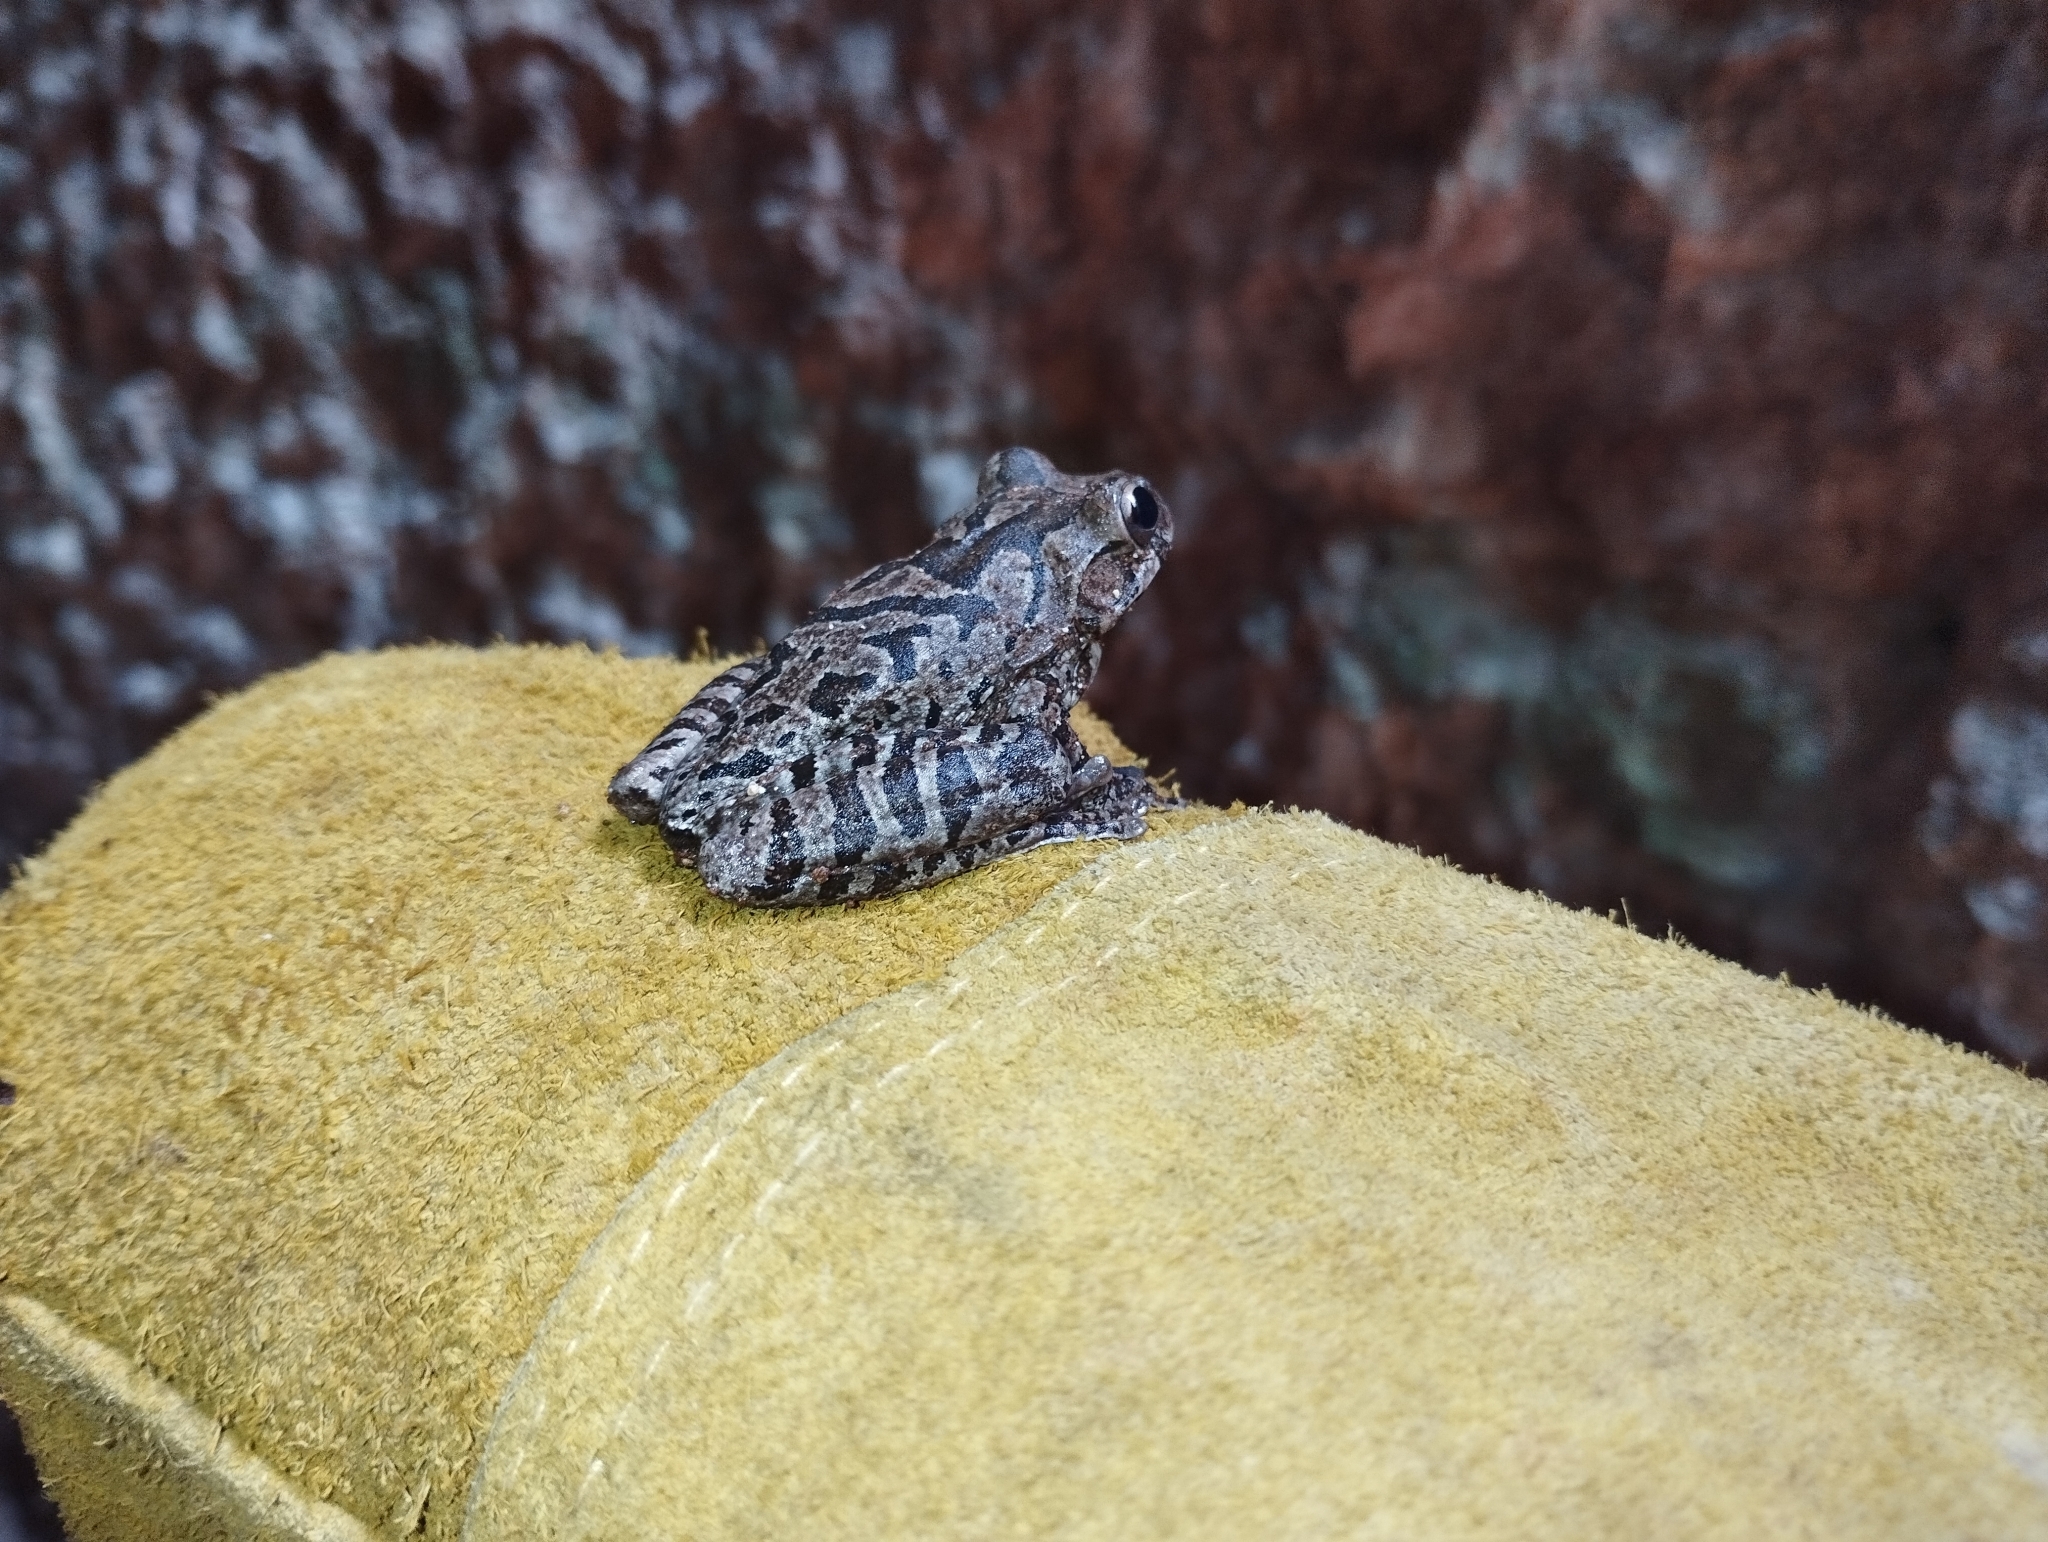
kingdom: Animalia
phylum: Chordata
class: Amphibia
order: Anura
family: Hylidae
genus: Smilisca
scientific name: Smilisca baudinii
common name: Mexican smilisca
